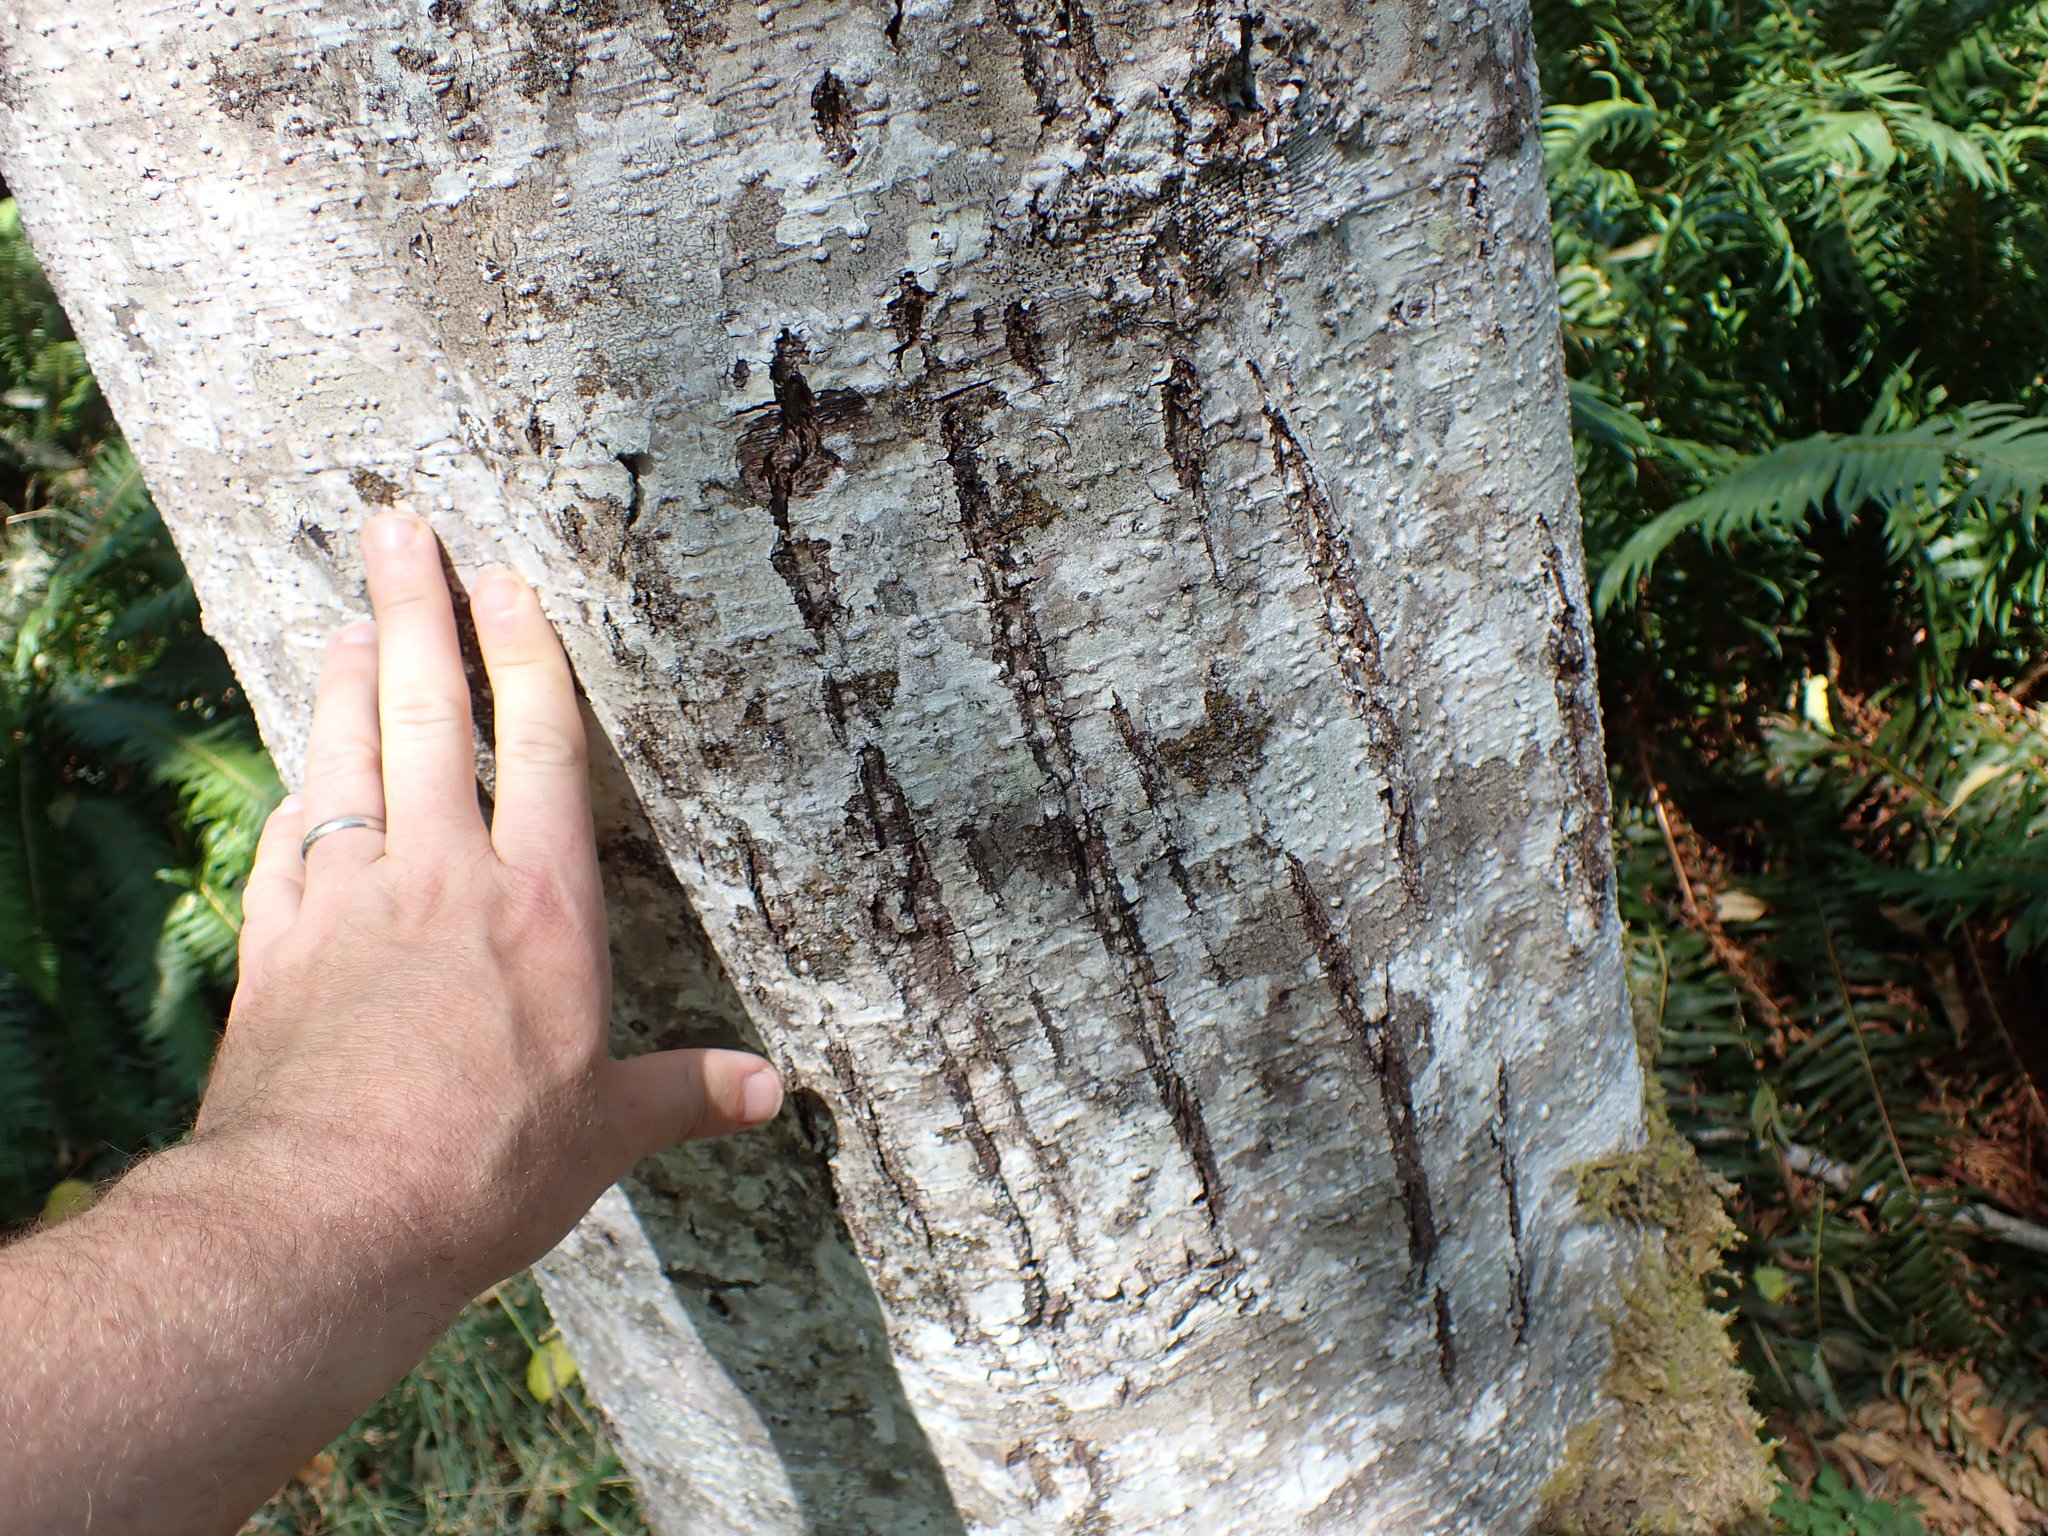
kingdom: Animalia
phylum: Chordata
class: Mammalia
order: Carnivora
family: Ursidae
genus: Ursus
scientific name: Ursus americanus
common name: American black bear
